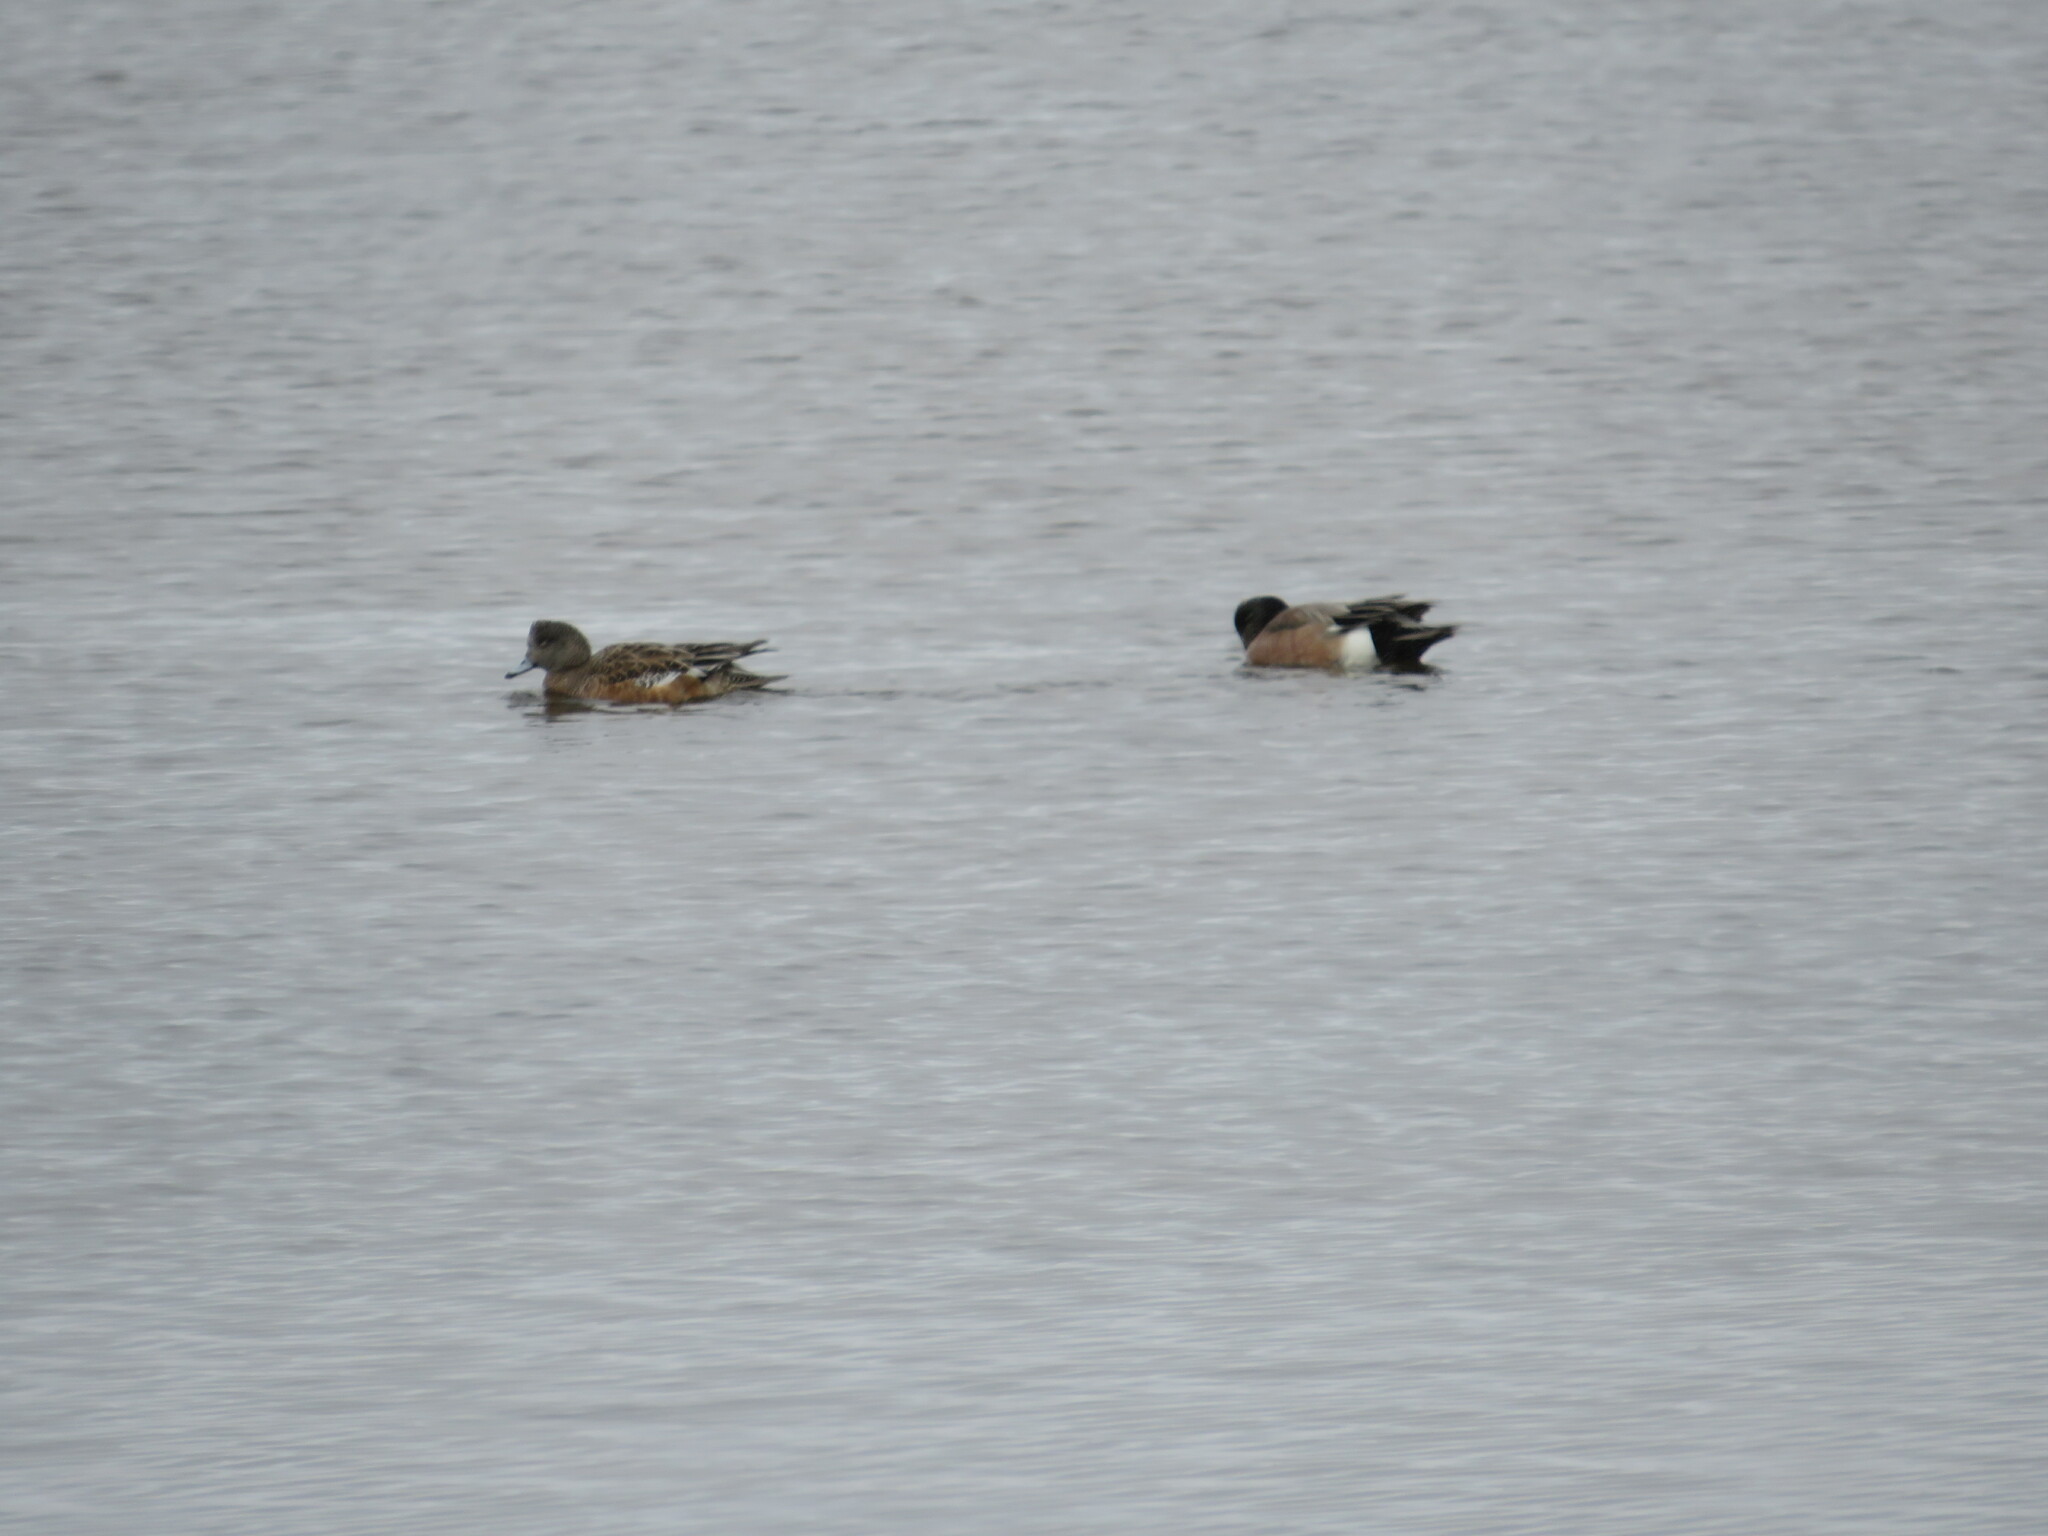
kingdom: Animalia
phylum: Chordata
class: Aves
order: Anseriformes
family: Anatidae
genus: Mareca
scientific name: Mareca americana
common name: American wigeon
